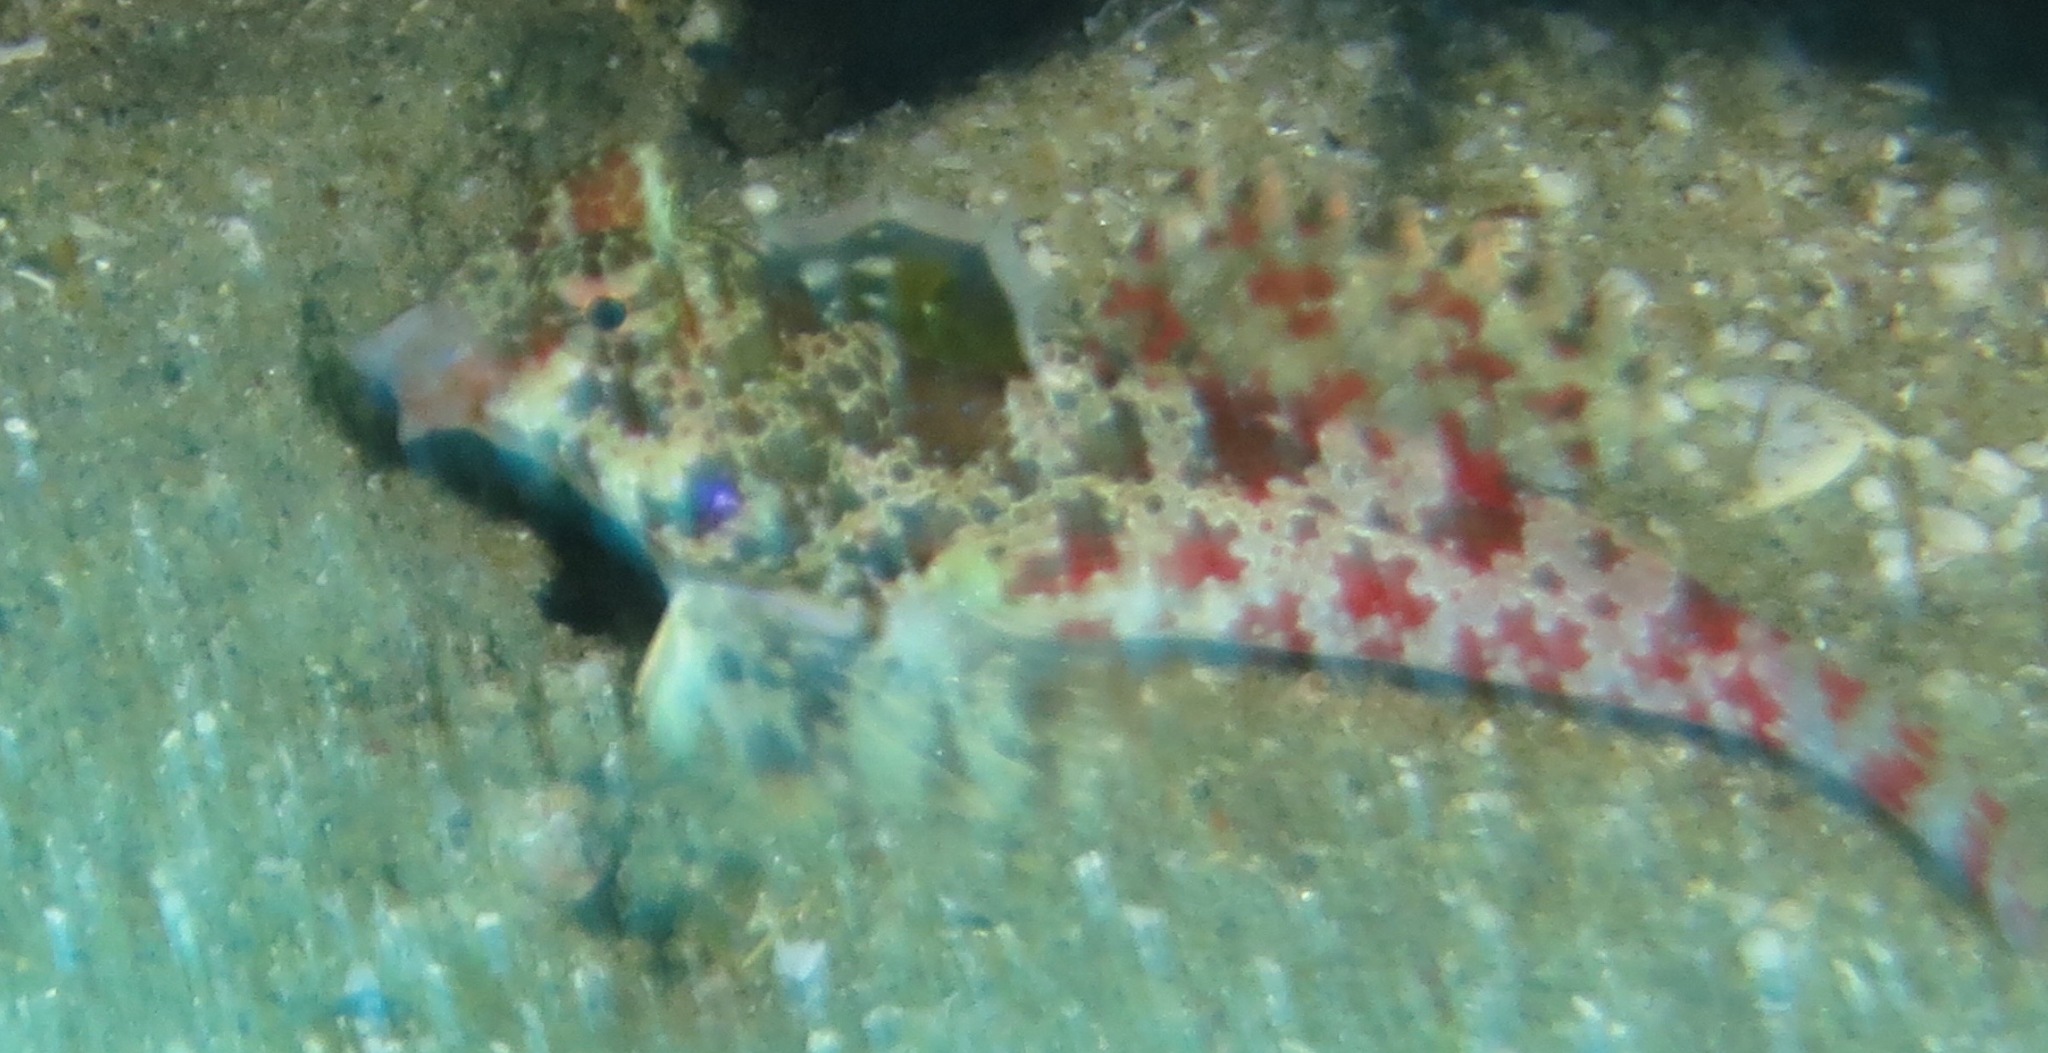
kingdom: Animalia
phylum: Chordata
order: Perciformes
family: Callionymidae
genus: Synchiropus
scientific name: Synchiropus stellatus
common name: Starry dragonet
